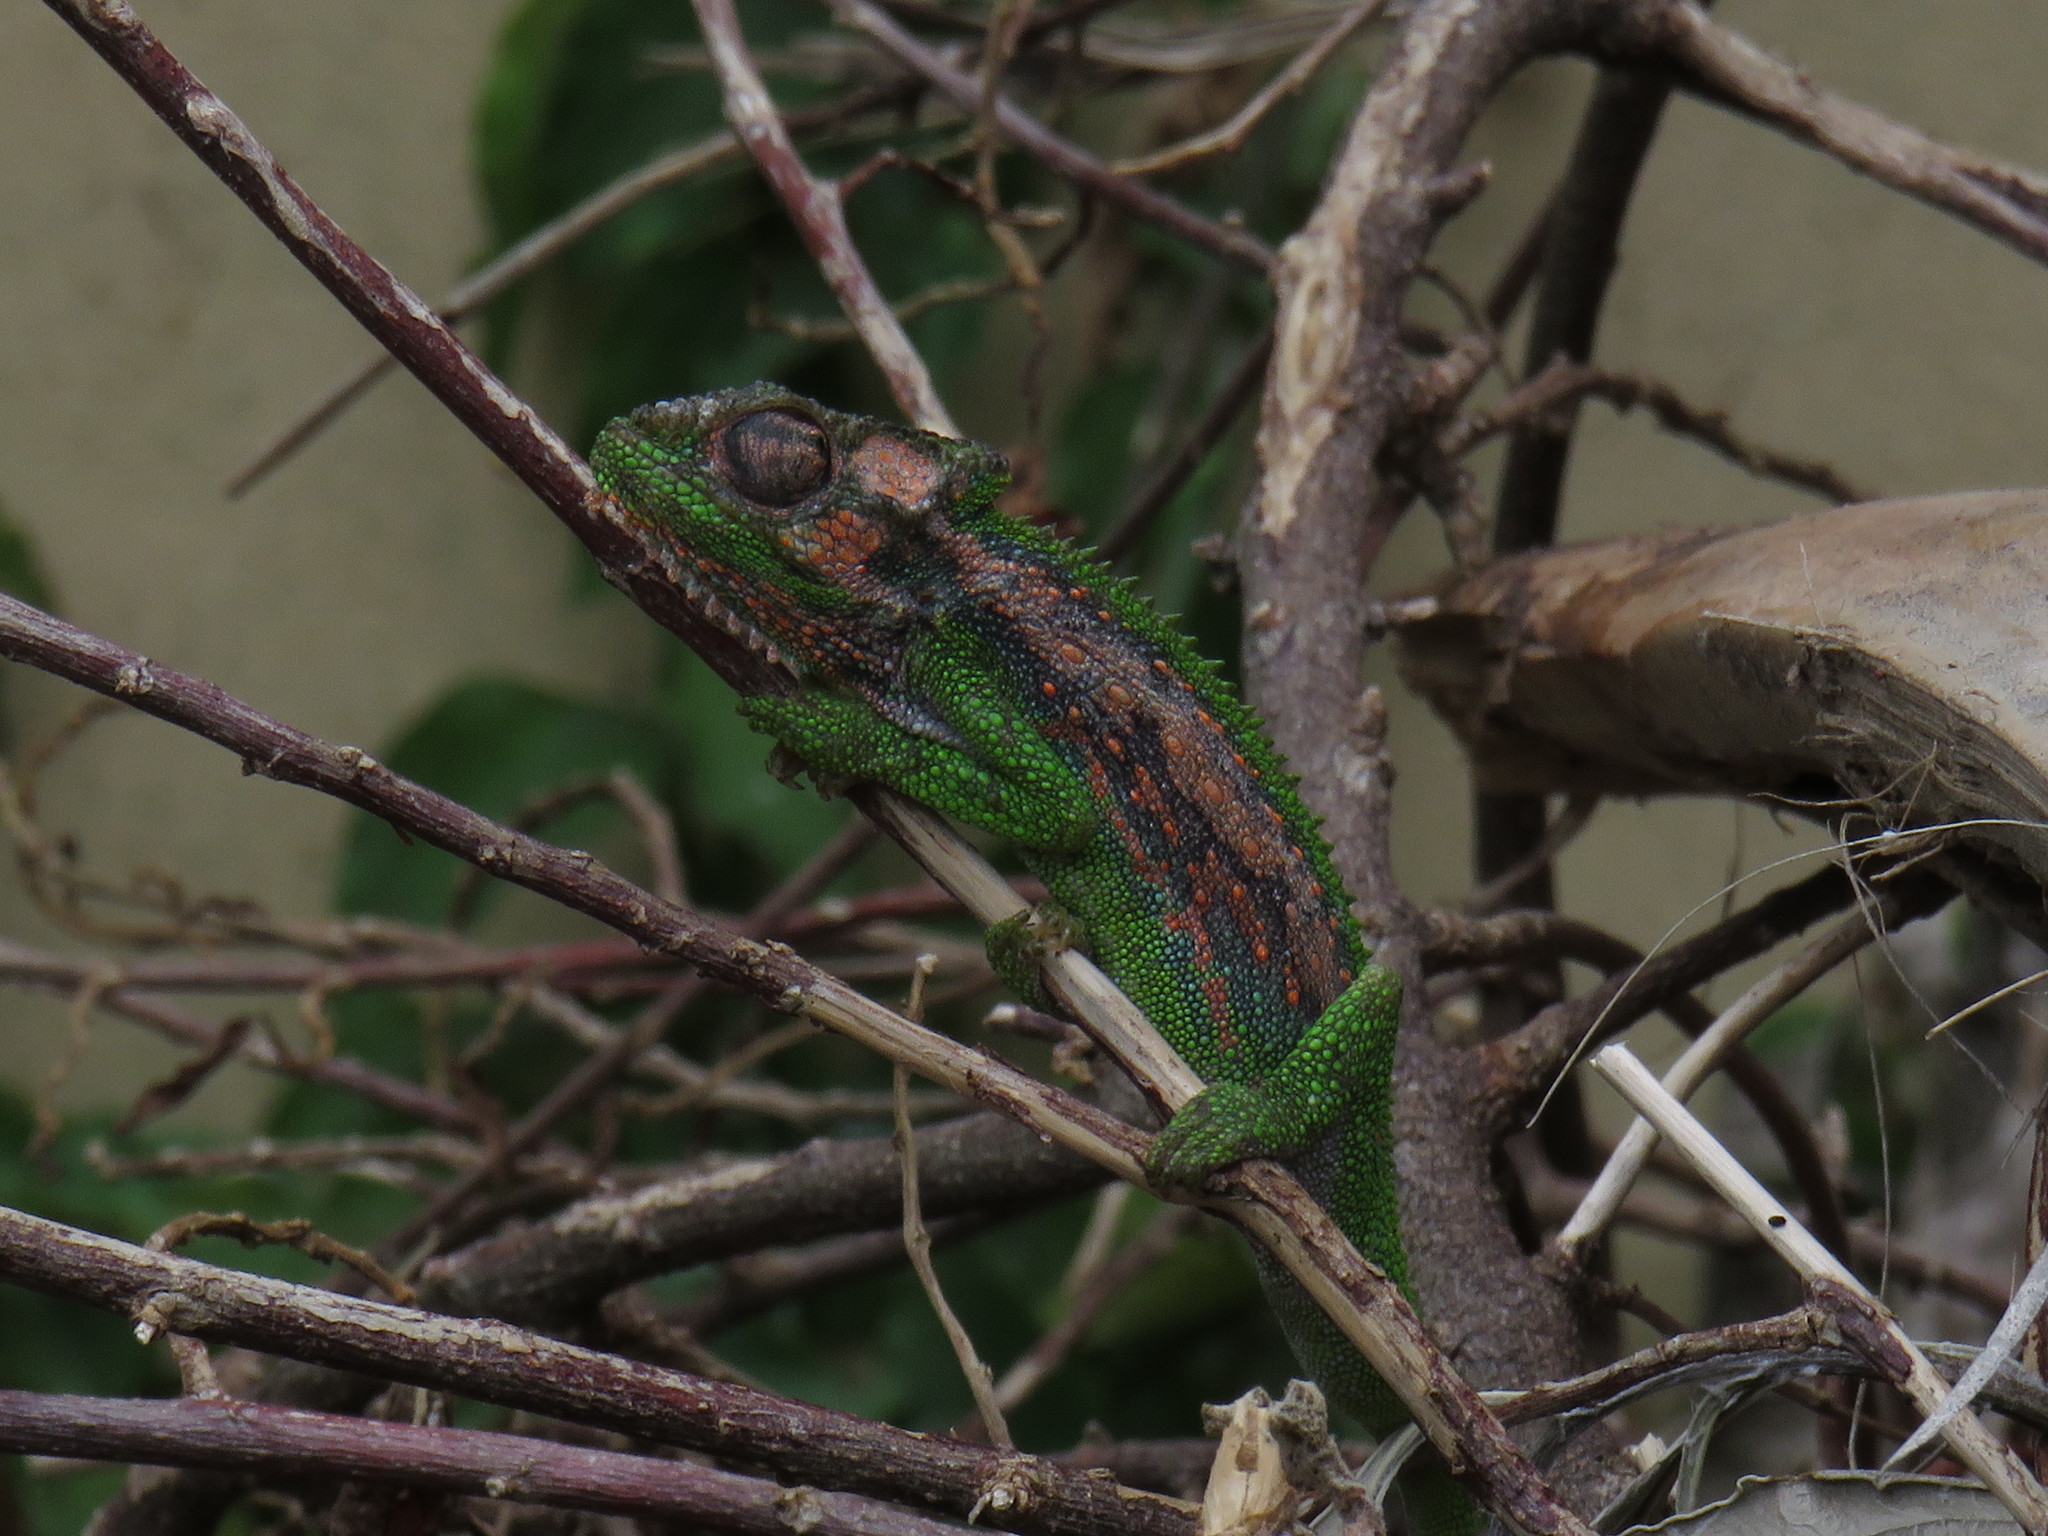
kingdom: Animalia
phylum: Chordata
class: Squamata
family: Chamaeleonidae
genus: Bradypodion
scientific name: Bradypodion pumilum
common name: Cape dwarf chameleon
